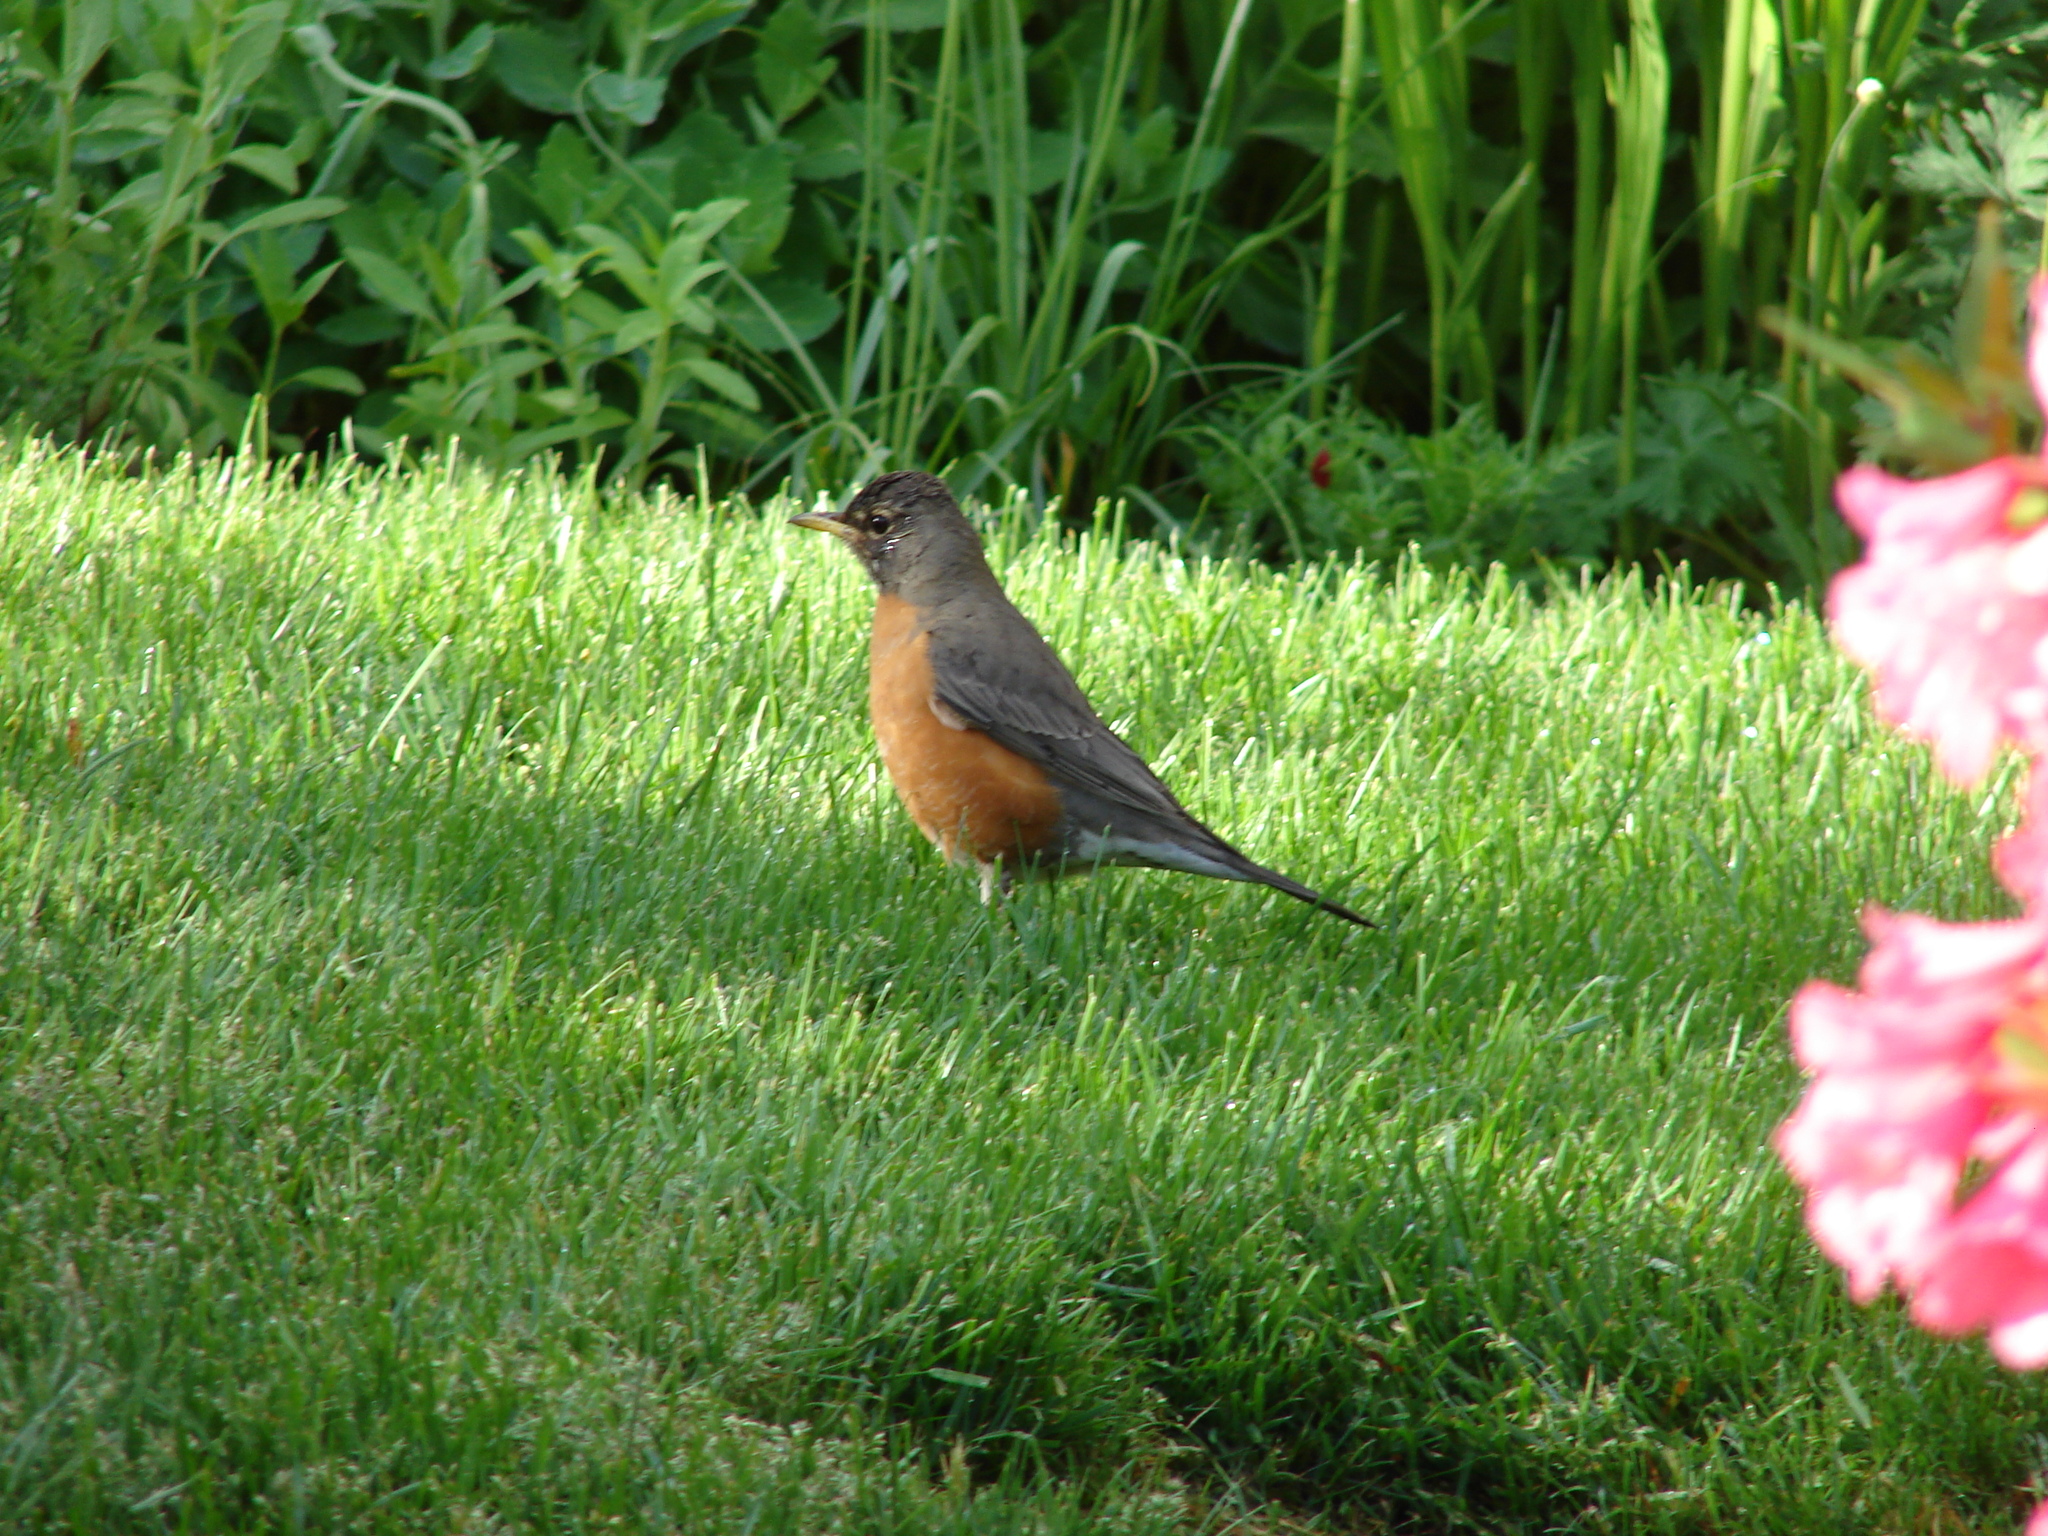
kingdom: Animalia
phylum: Chordata
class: Aves
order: Passeriformes
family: Turdidae
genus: Turdus
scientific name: Turdus migratorius
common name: American robin
